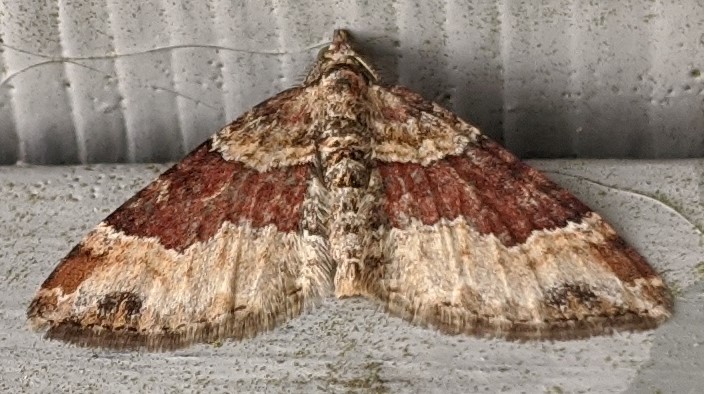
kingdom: Animalia
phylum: Arthropoda
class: Insecta
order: Lepidoptera
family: Geometridae
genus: Xanthorhoe
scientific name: Xanthorhoe ferrugata
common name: Dark-barred twin-spot carpet
